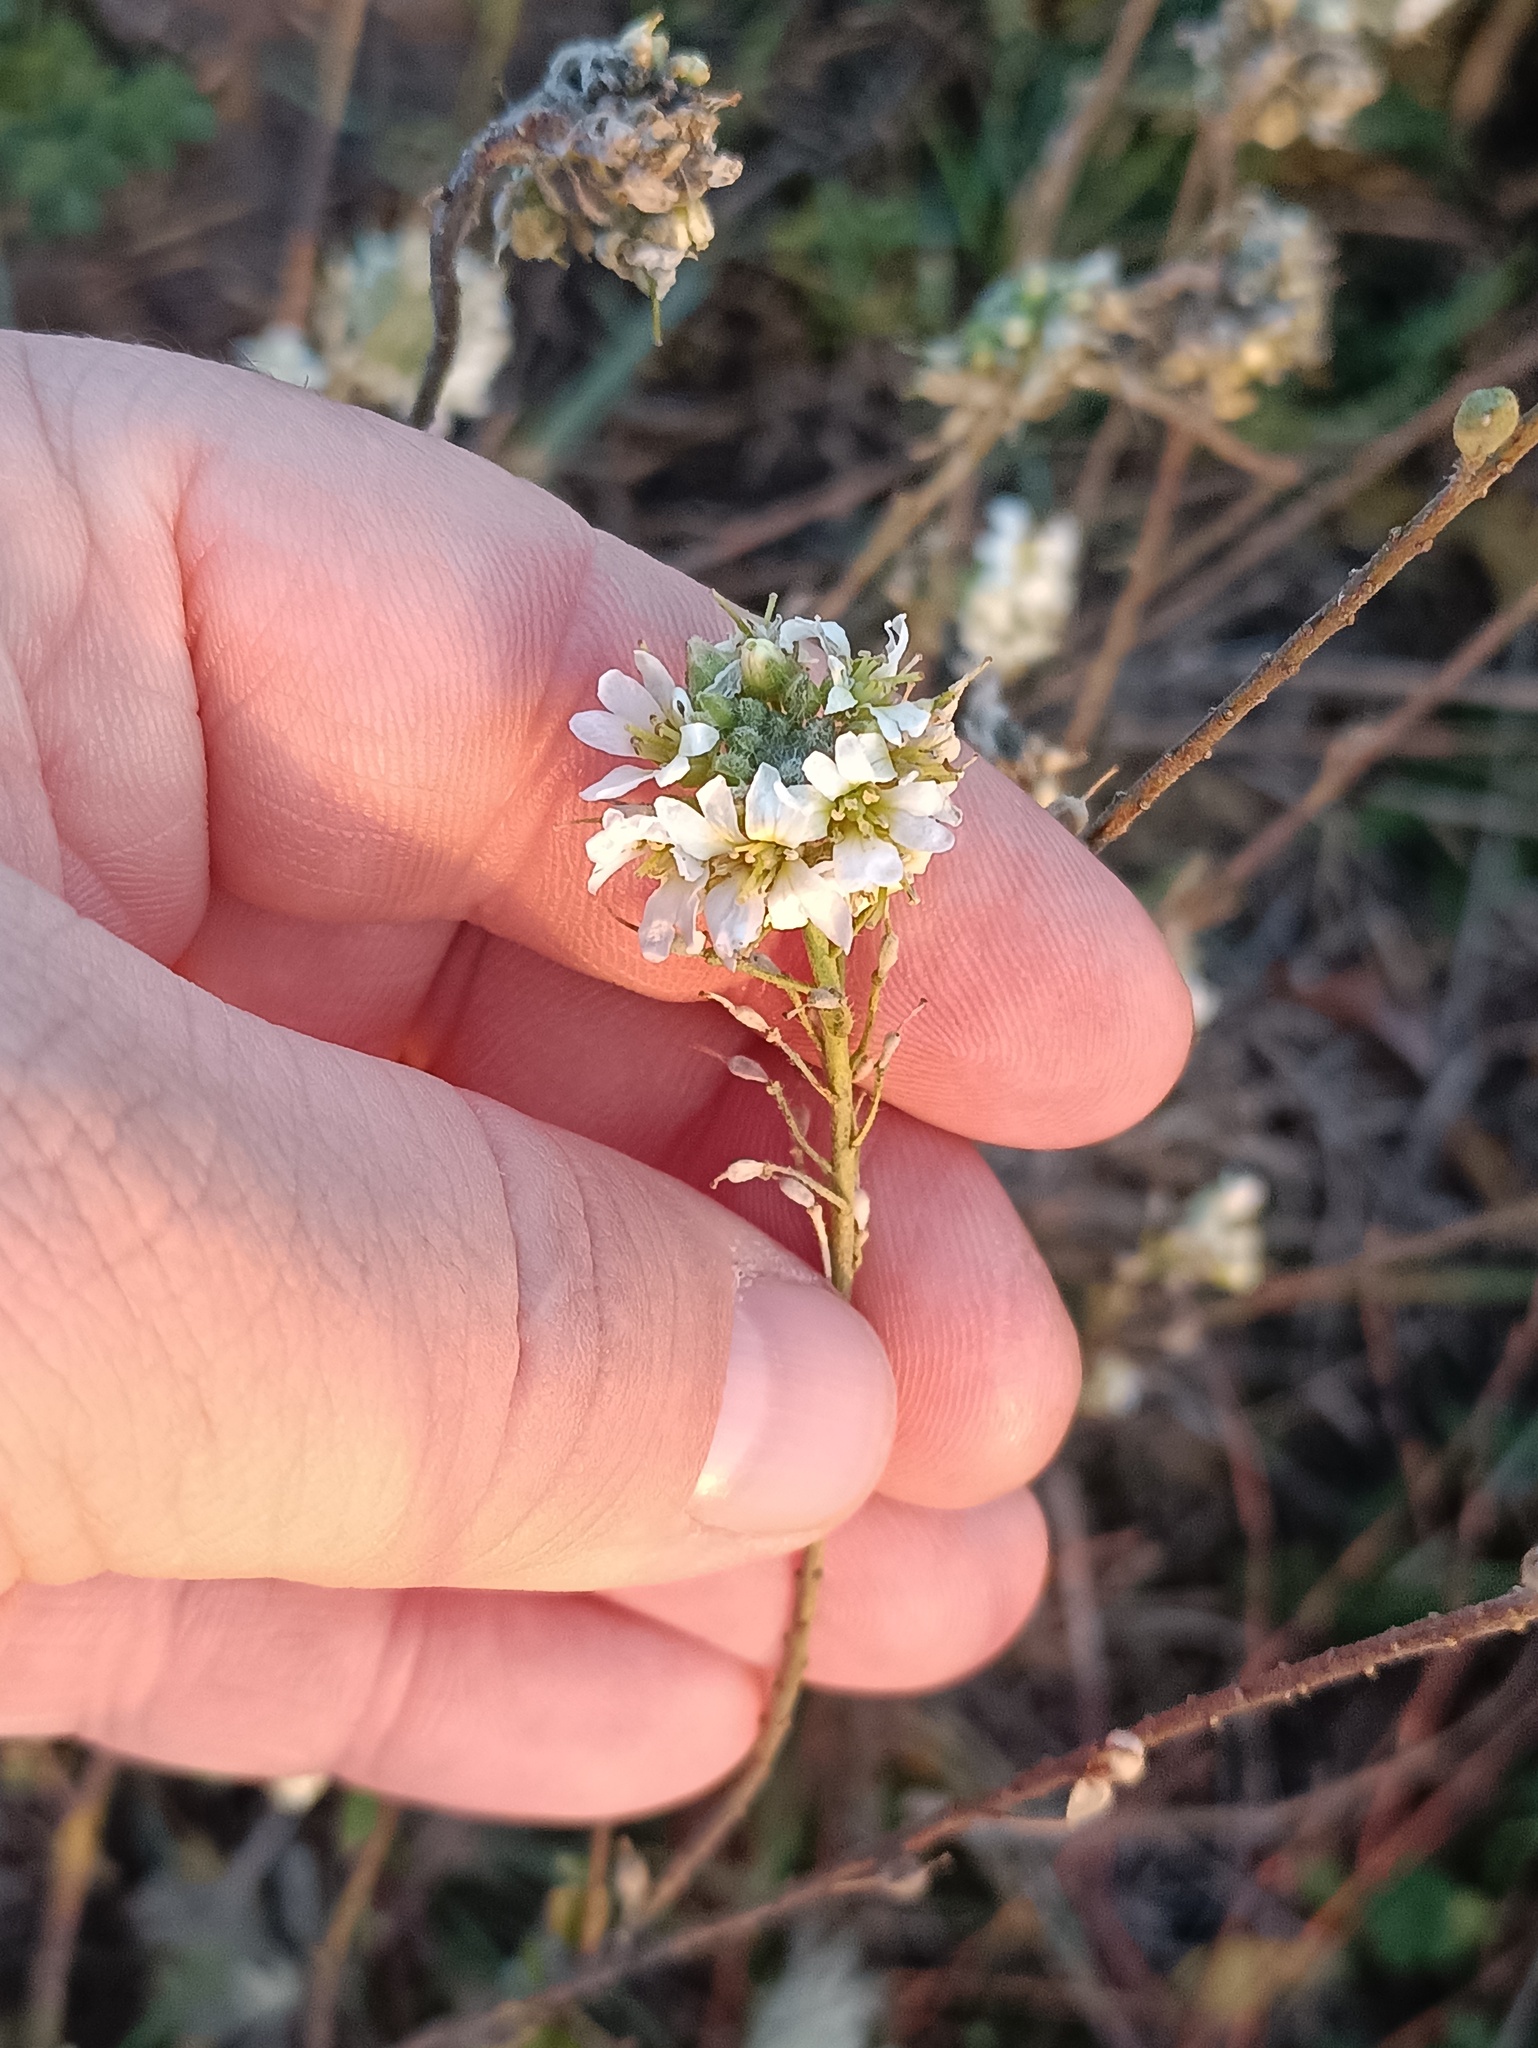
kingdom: Plantae
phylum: Tracheophyta
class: Magnoliopsida
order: Brassicales
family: Brassicaceae
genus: Berteroa
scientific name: Berteroa incana
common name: Hoary alison
